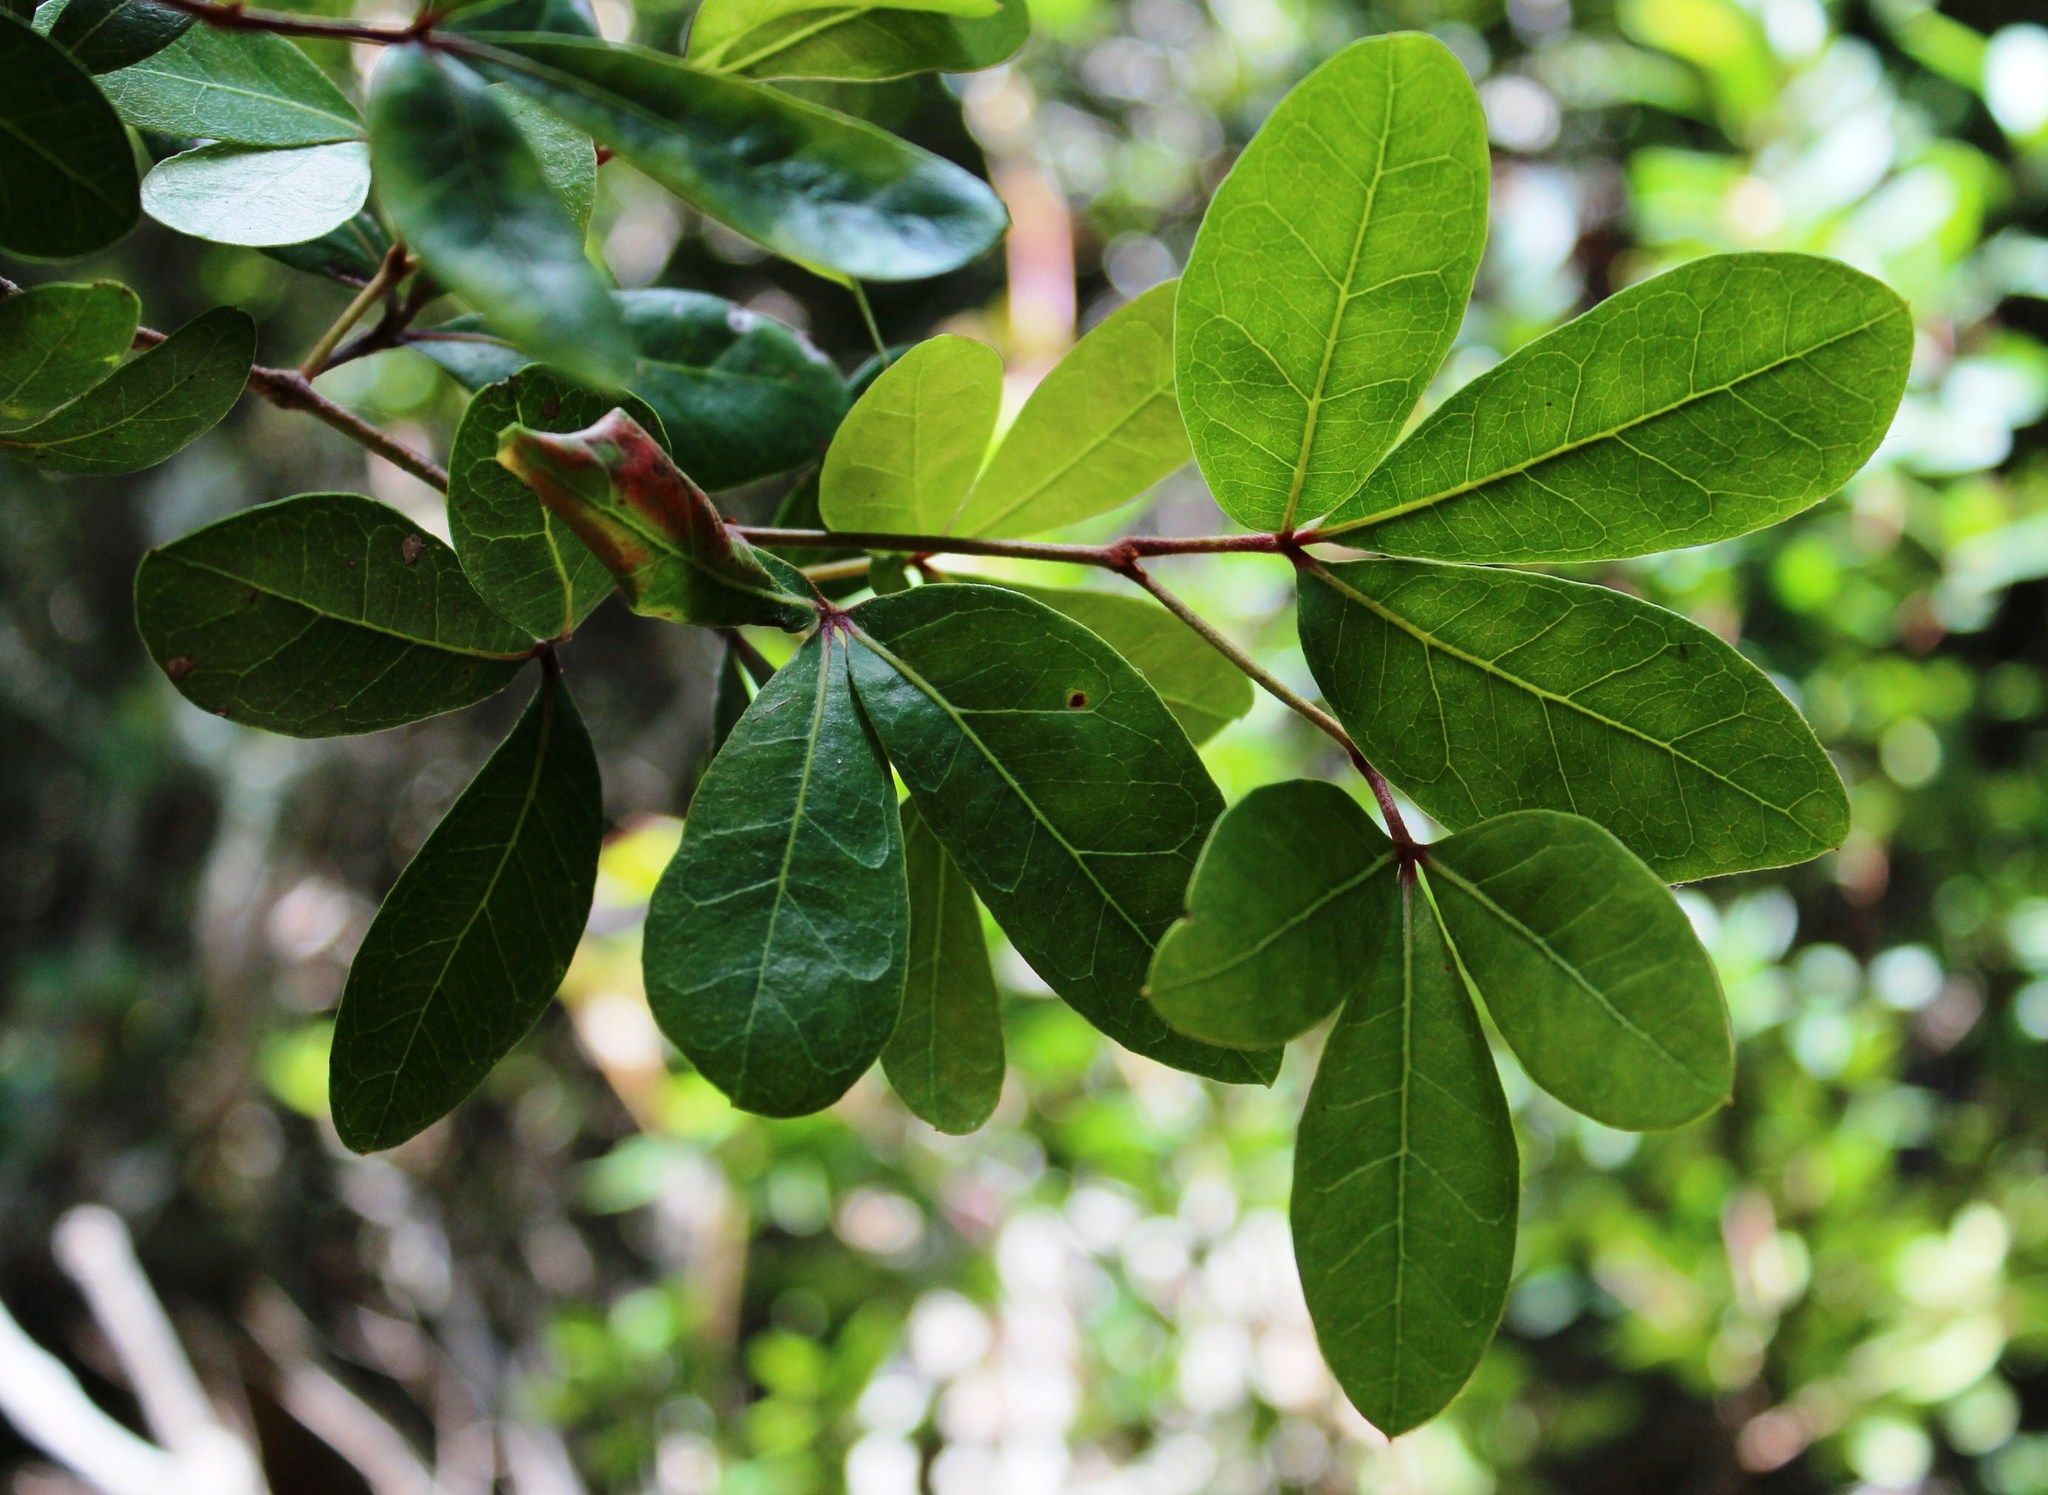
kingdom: Plantae
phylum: Tracheophyta
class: Magnoliopsida
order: Vitales
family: Vitaceae
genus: Rhoicissus
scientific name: Rhoicissus digitata
